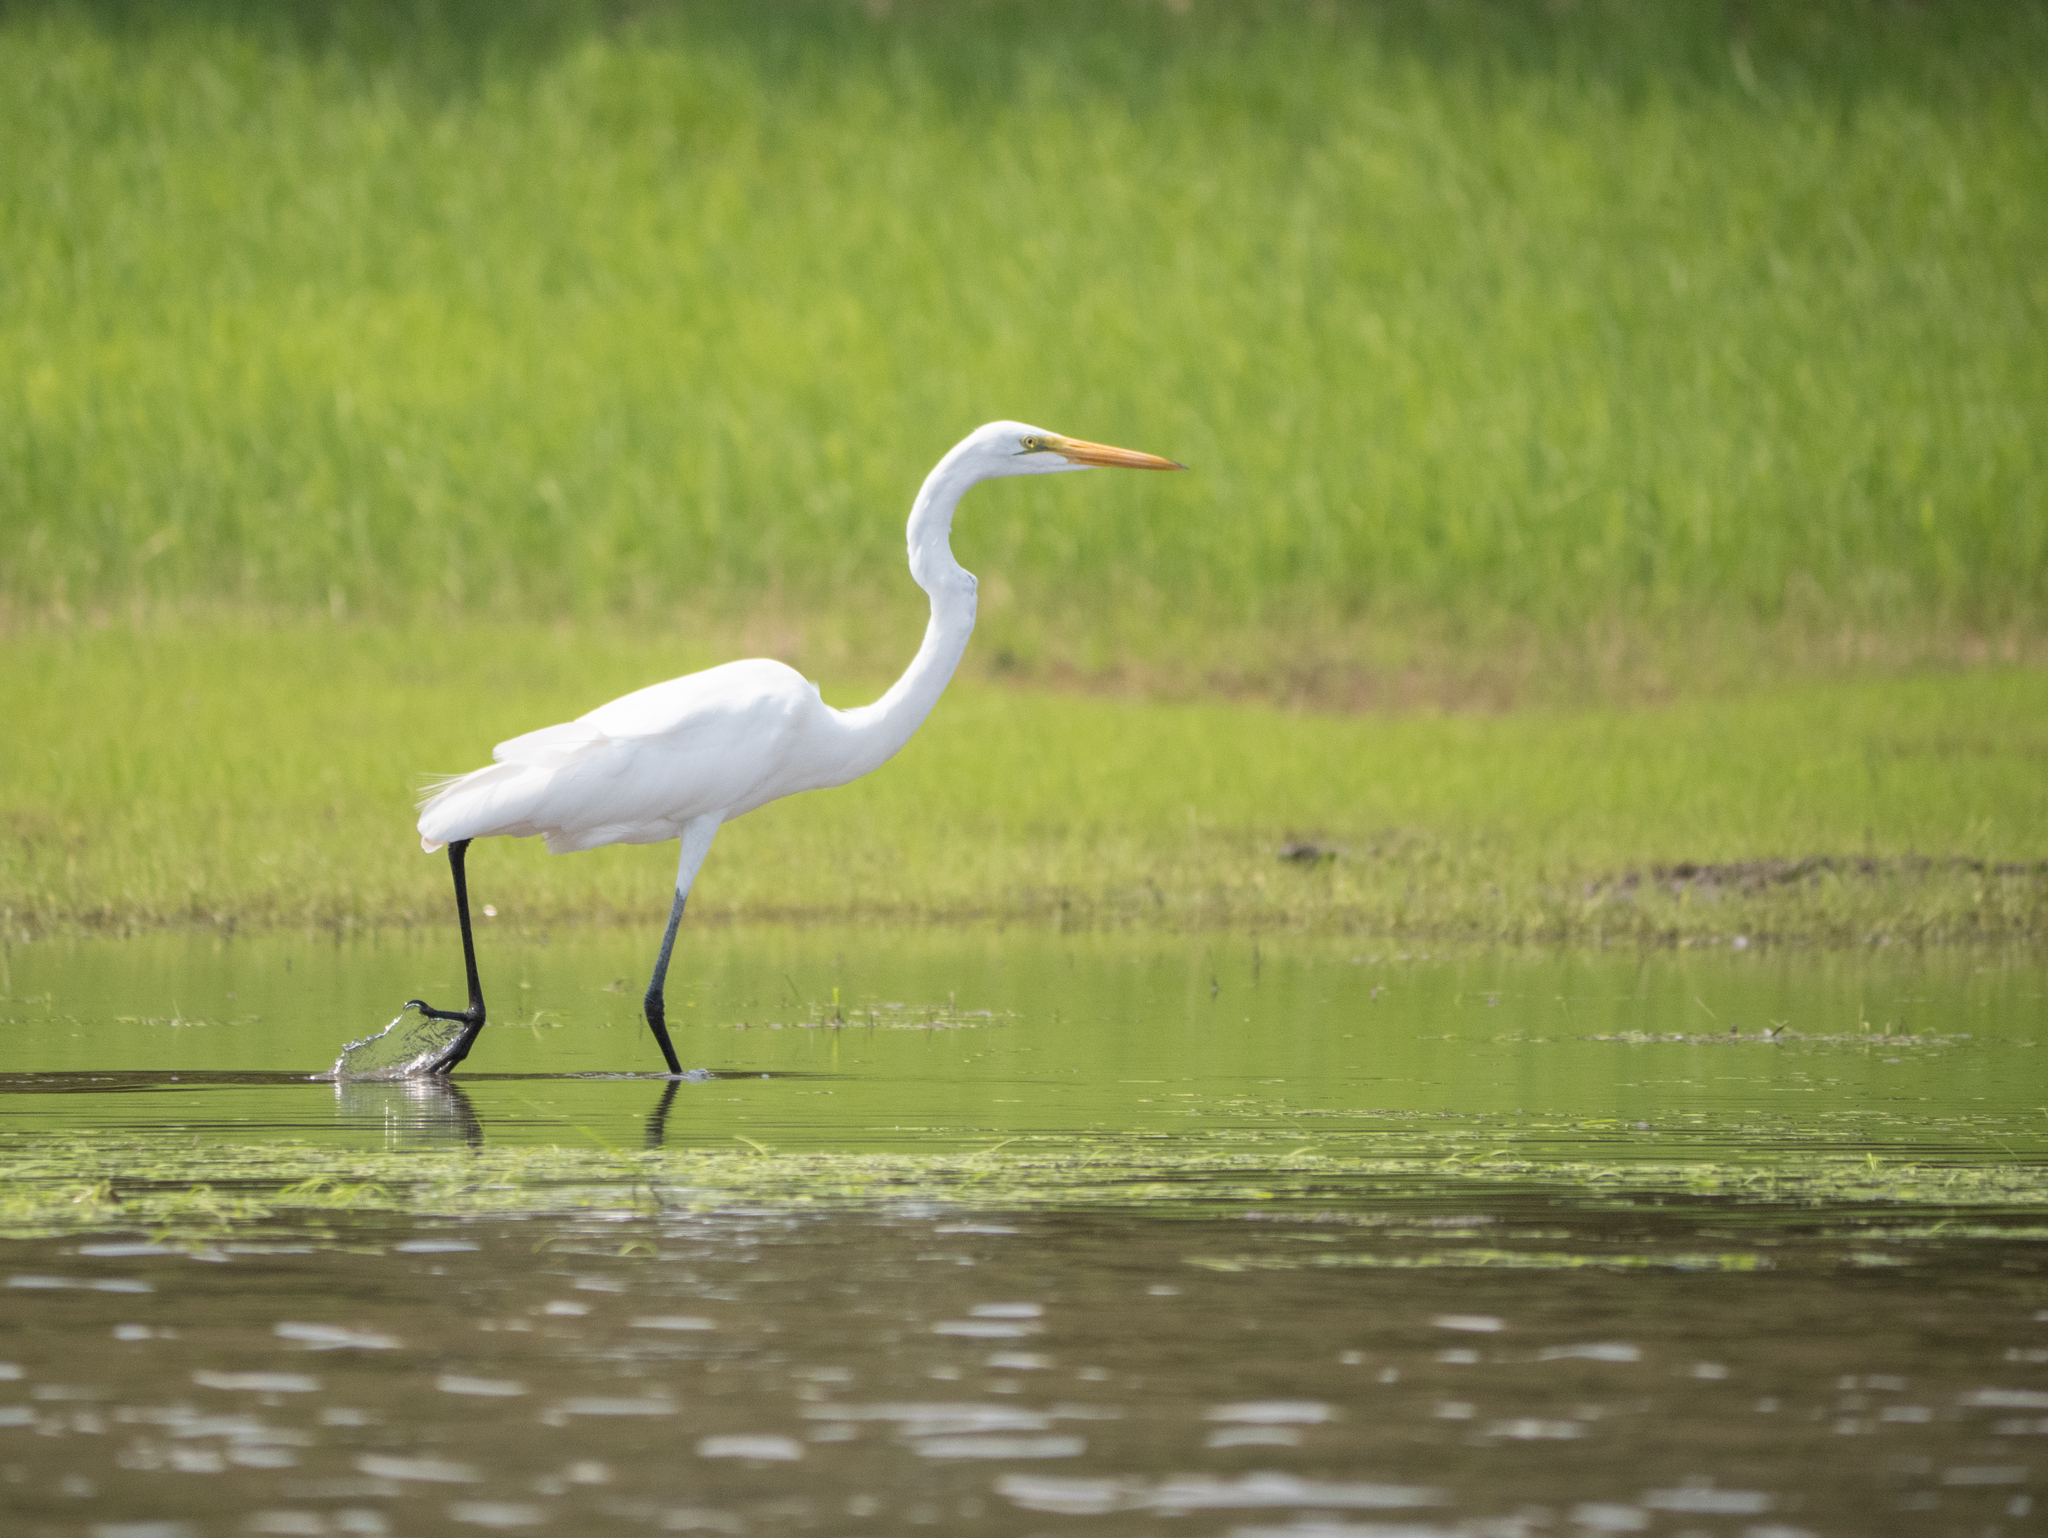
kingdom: Animalia
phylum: Chordata
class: Aves
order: Pelecaniformes
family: Ardeidae
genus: Ardea
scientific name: Ardea alba
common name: Great egret
